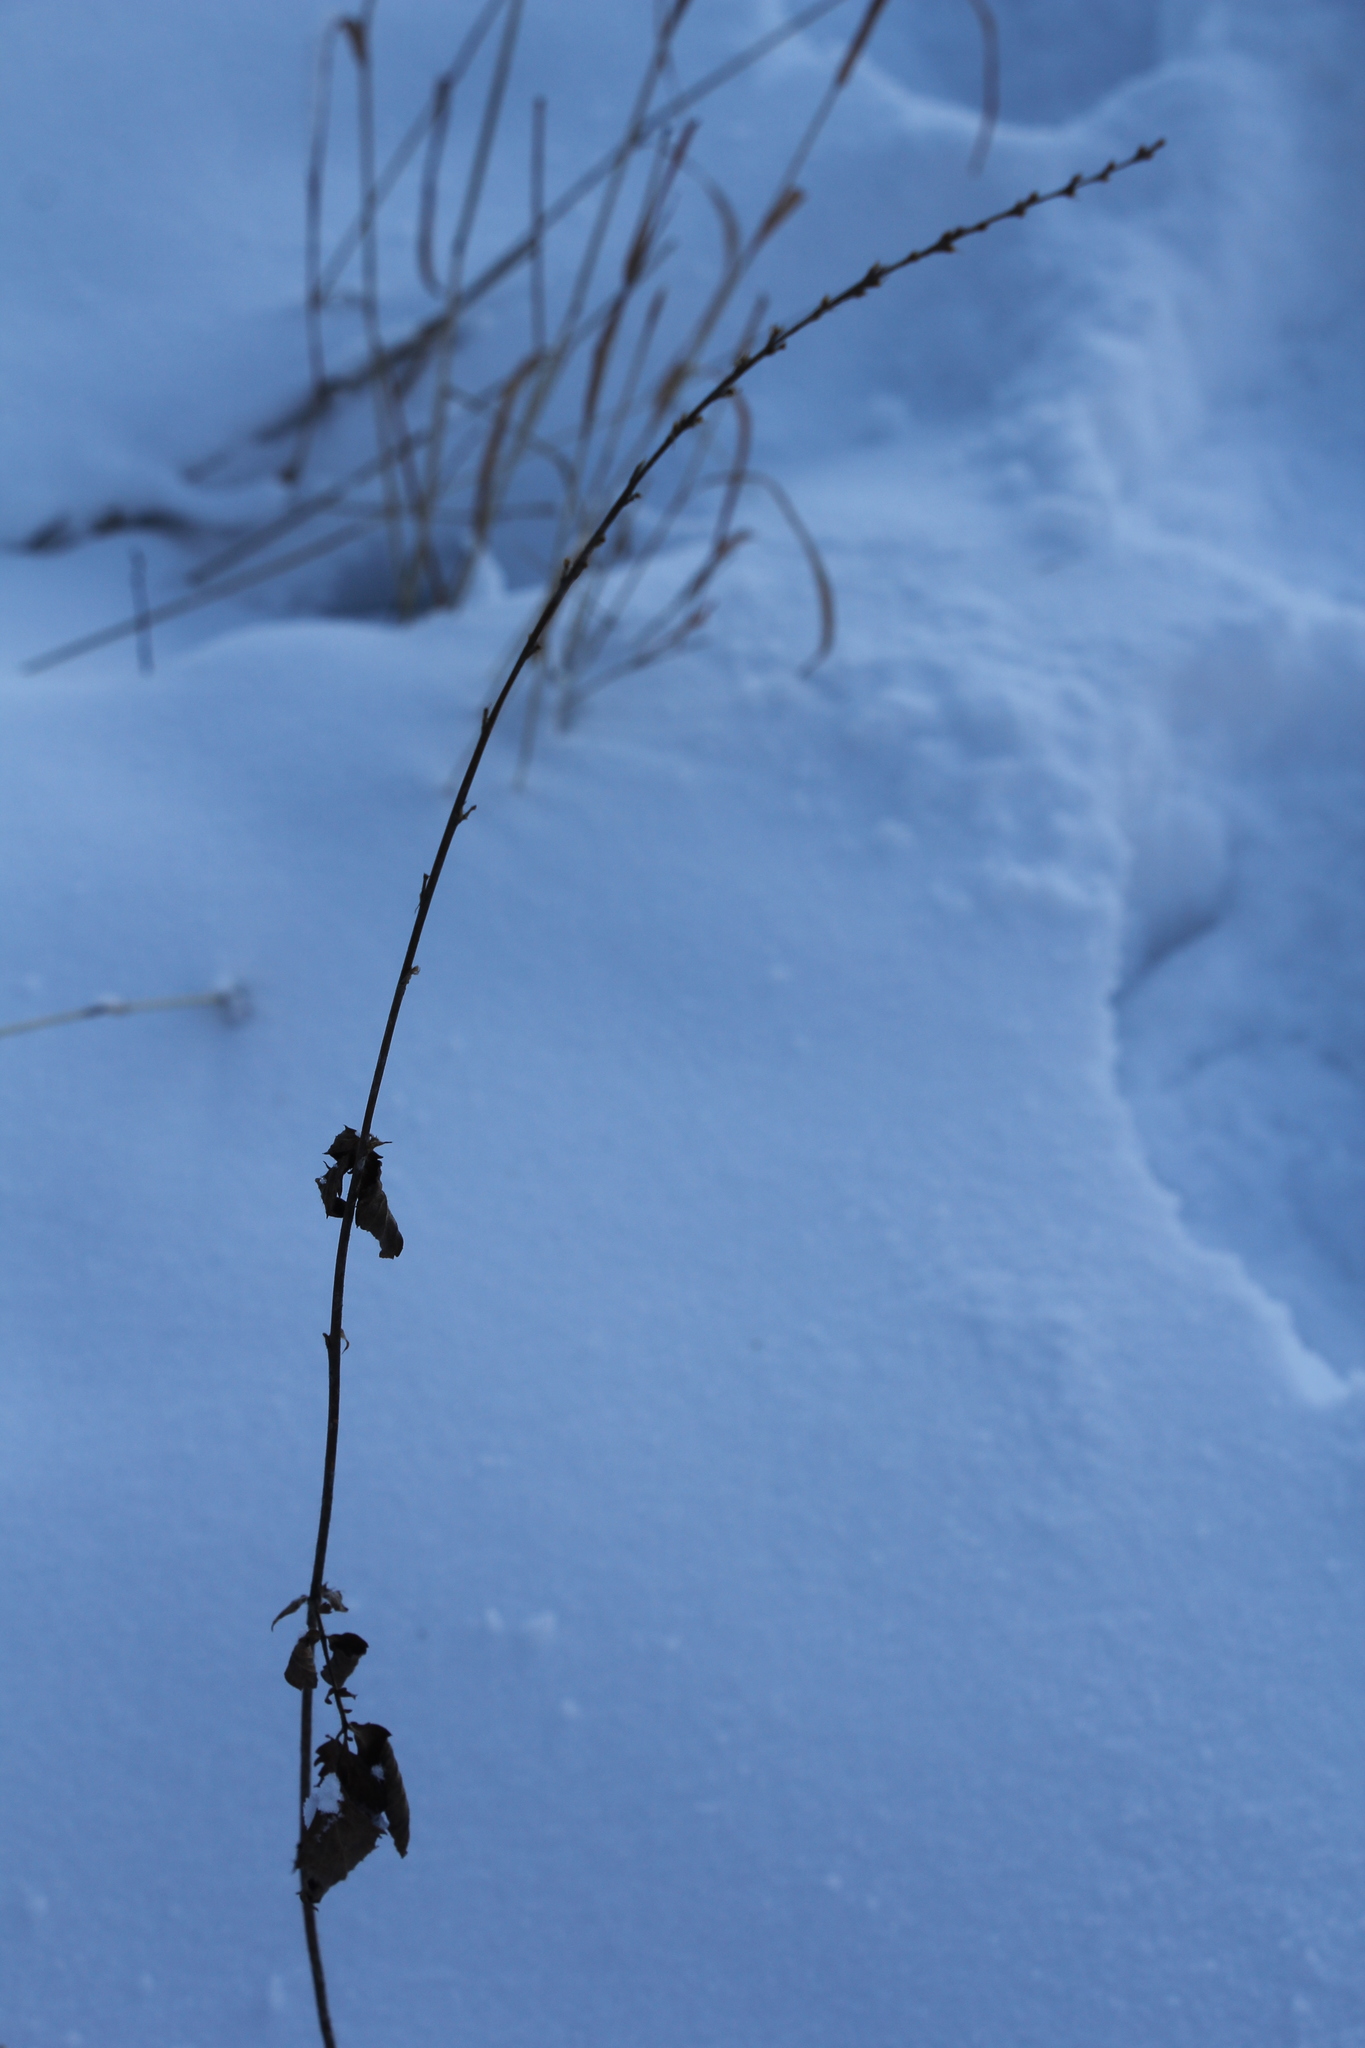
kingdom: Plantae
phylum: Tracheophyta
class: Magnoliopsida
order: Rosales
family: Rosaceae
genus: Agrimonia
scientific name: Agrimonia pilosa
